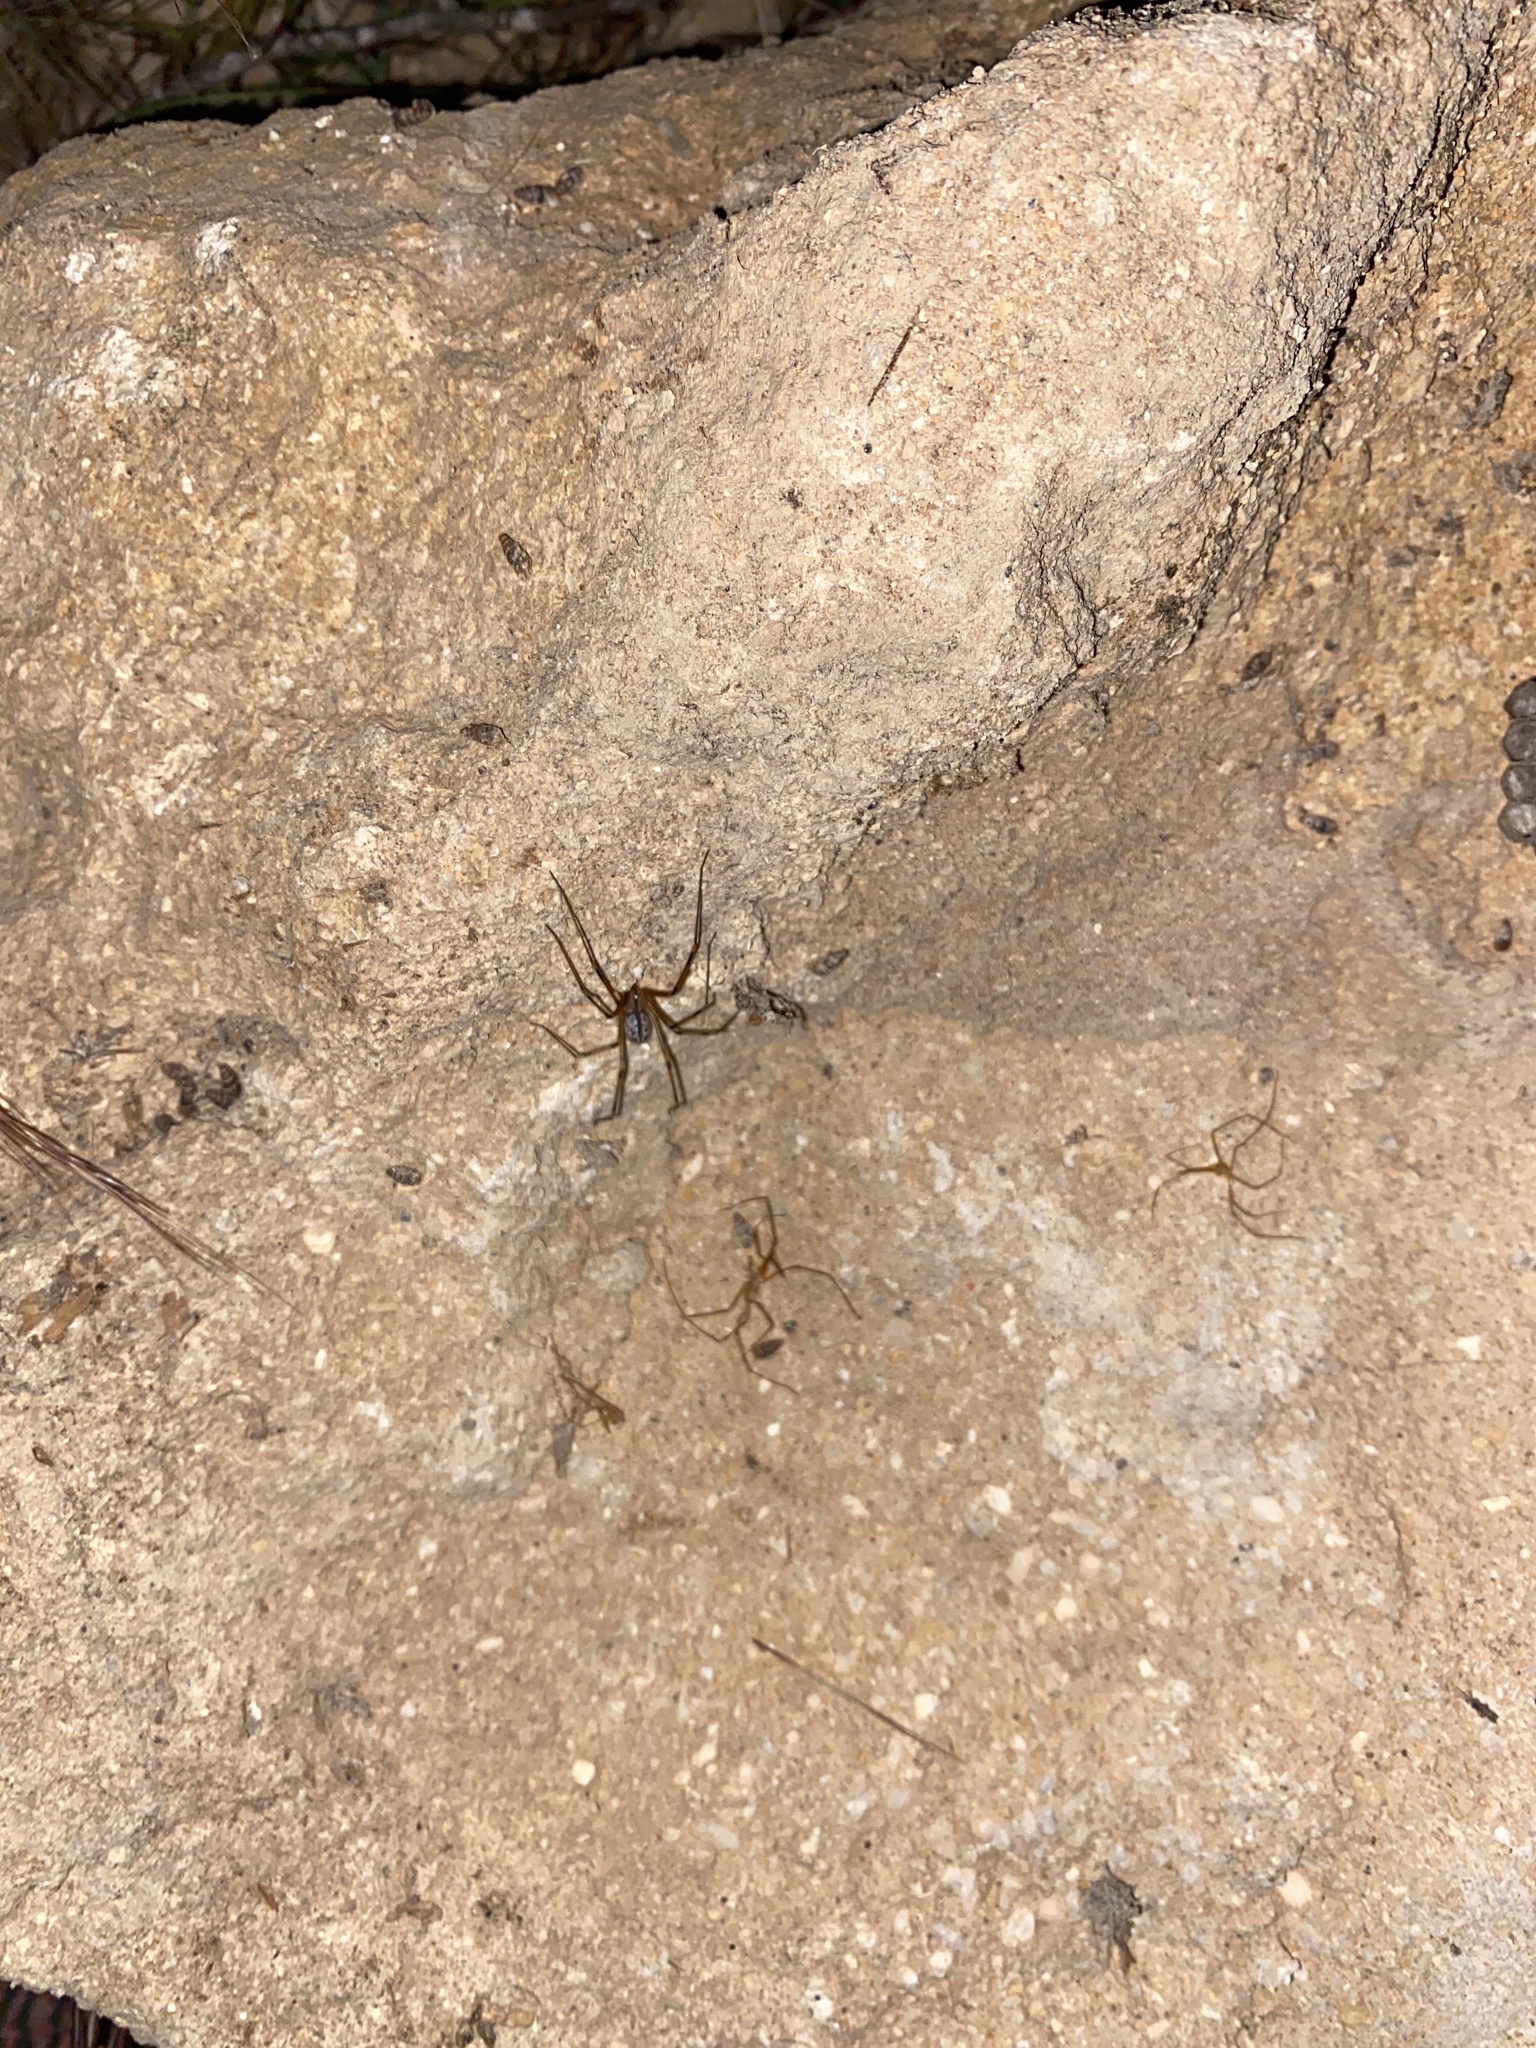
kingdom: Animalia
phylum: Arthropoda
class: Arachnida
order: Araneae
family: Pholcidae
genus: Artema
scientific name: Artema doriae
